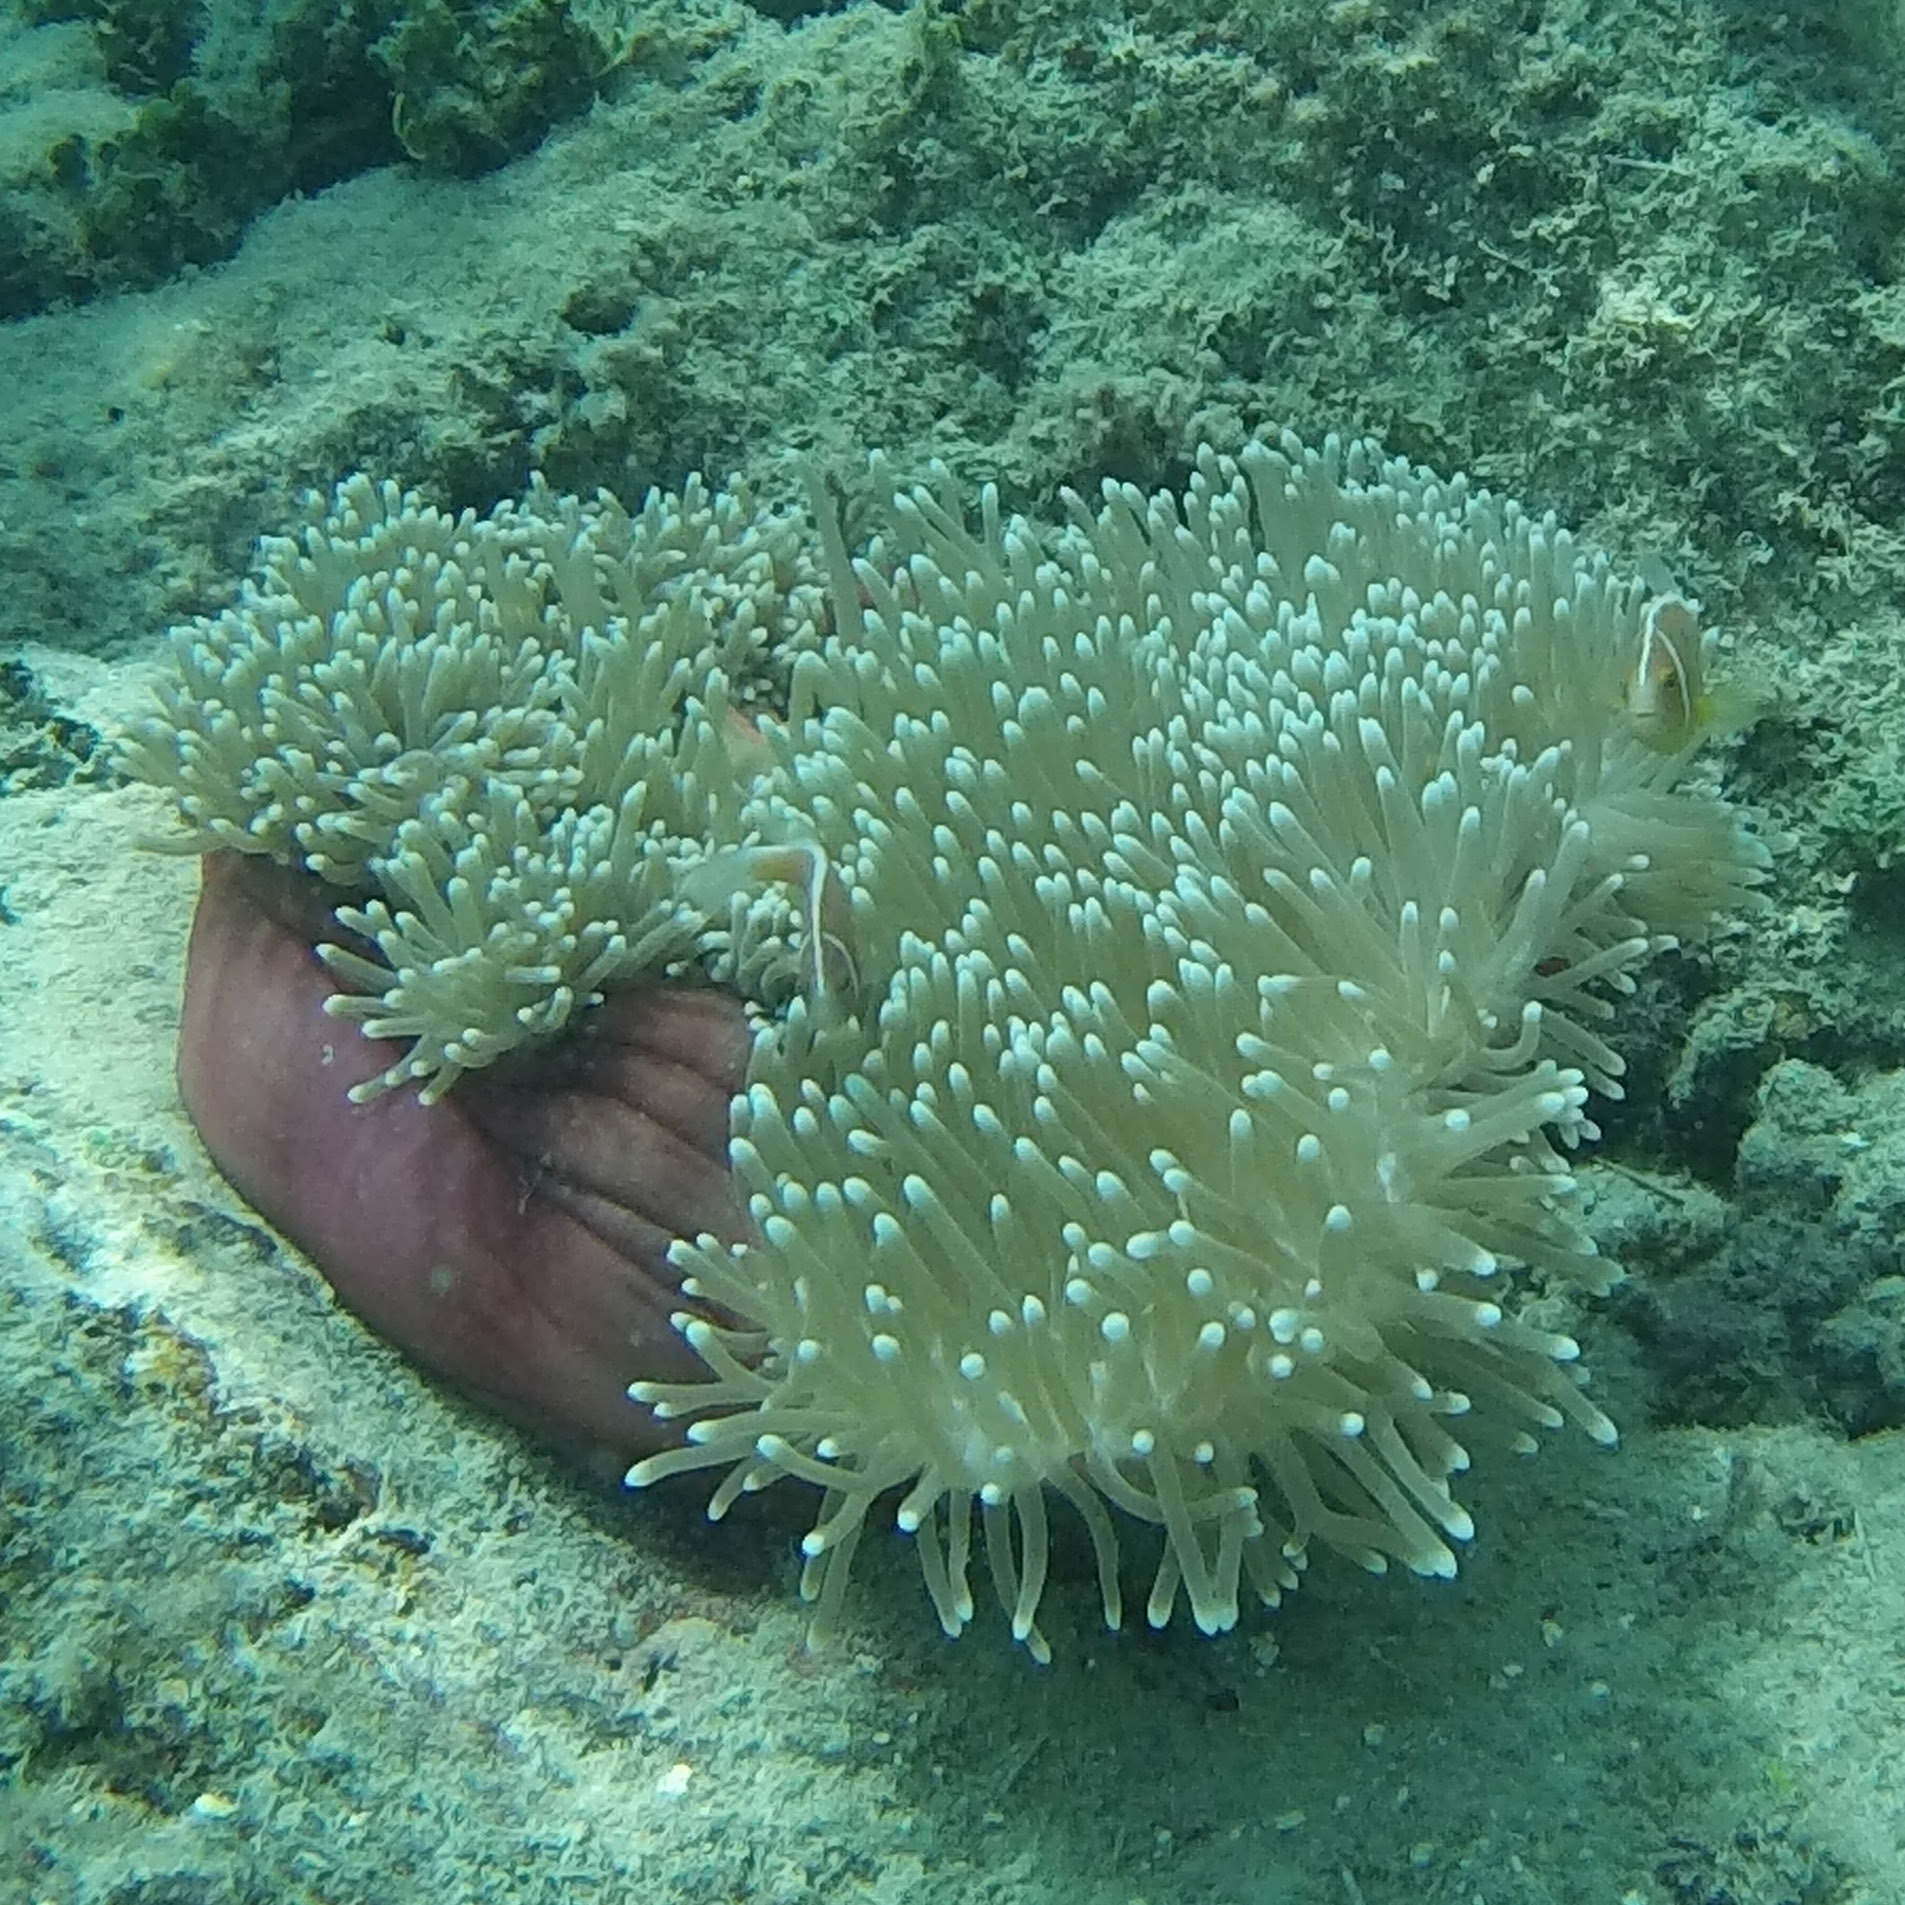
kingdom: Animalia
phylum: Cnidaria
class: Anthozoa
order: Actiniaria
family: Stichodactylidae
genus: Radianthus
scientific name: Radianthus magnifica
